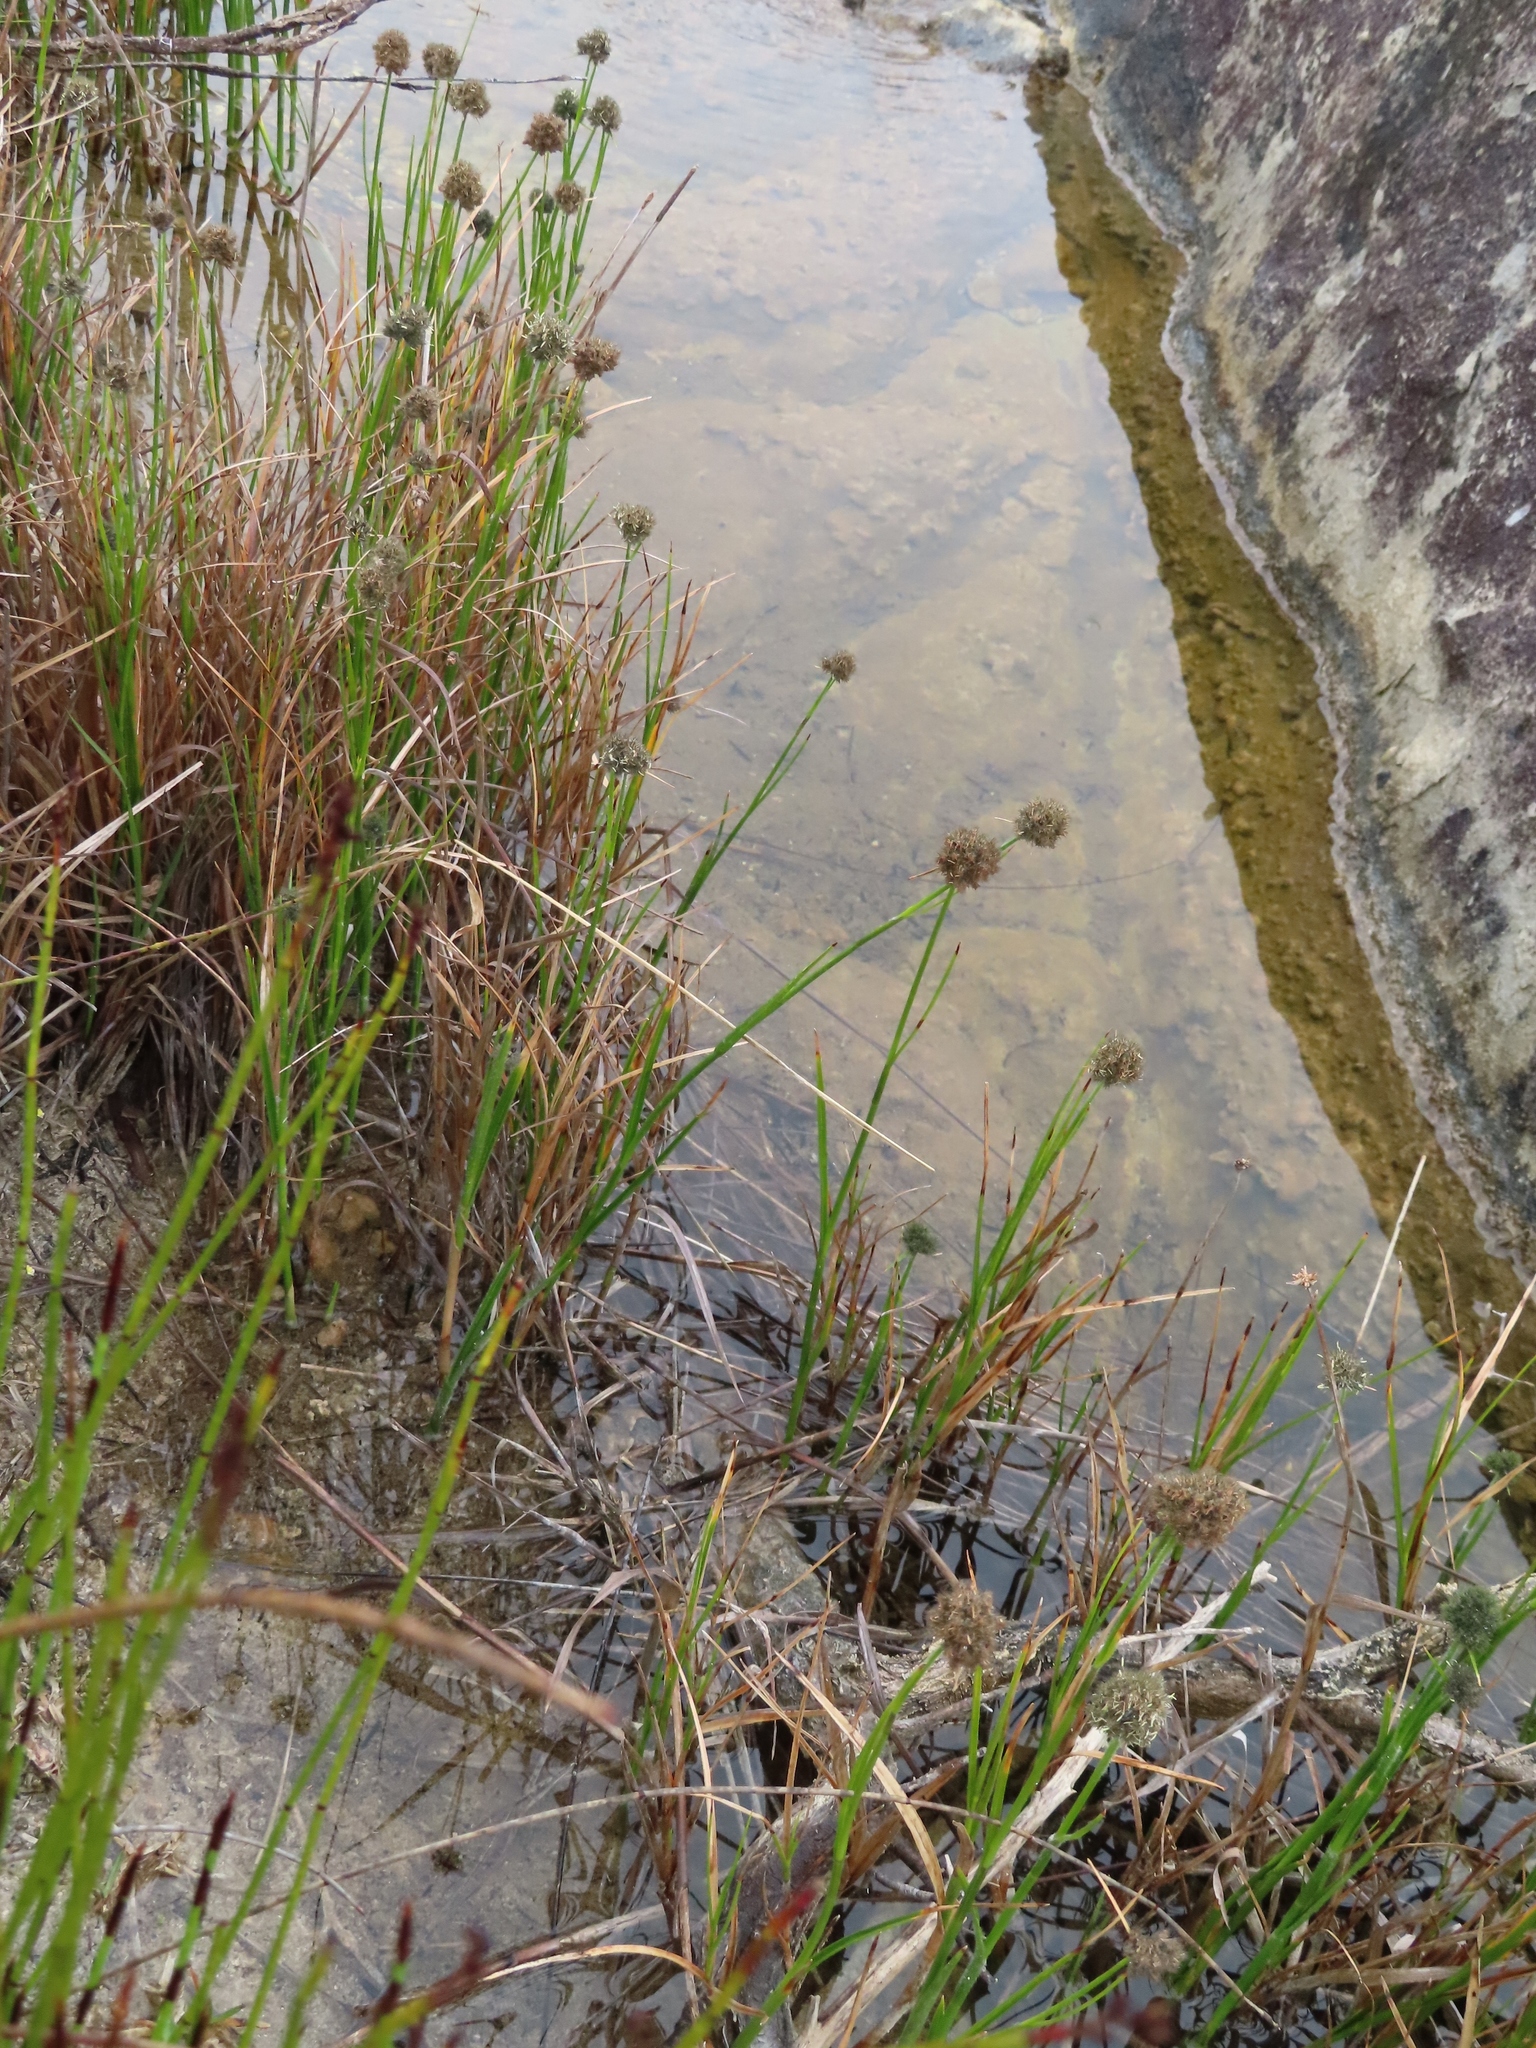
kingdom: Plantae
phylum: Tracheophyta
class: Liliopsida
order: Poales
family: Cyperaceae
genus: Fuirena
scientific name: Fuirena hirsuta
